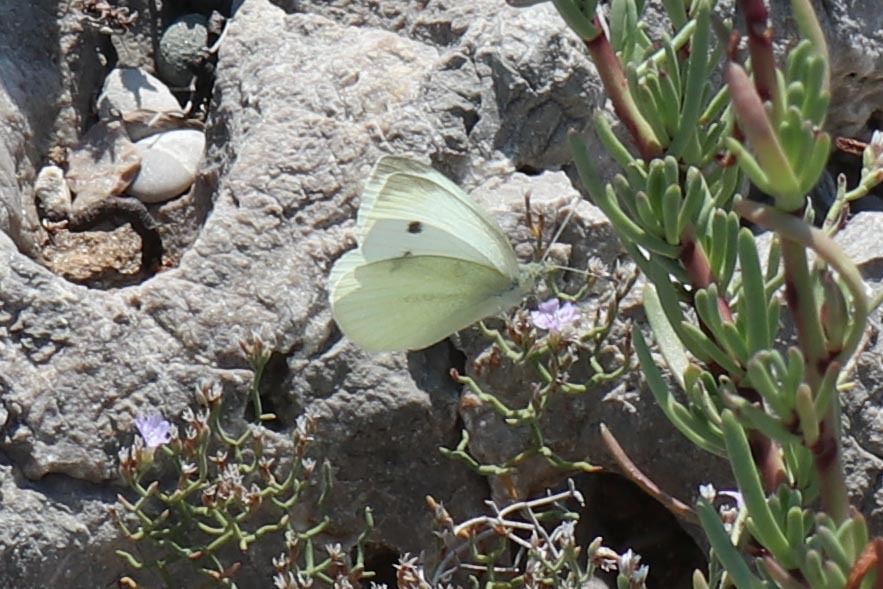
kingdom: Animalia
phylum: Arthropoda
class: Insecta
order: Lepidoptera
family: Pieridae
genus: Pieris
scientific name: Pieris rapae
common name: Small white
